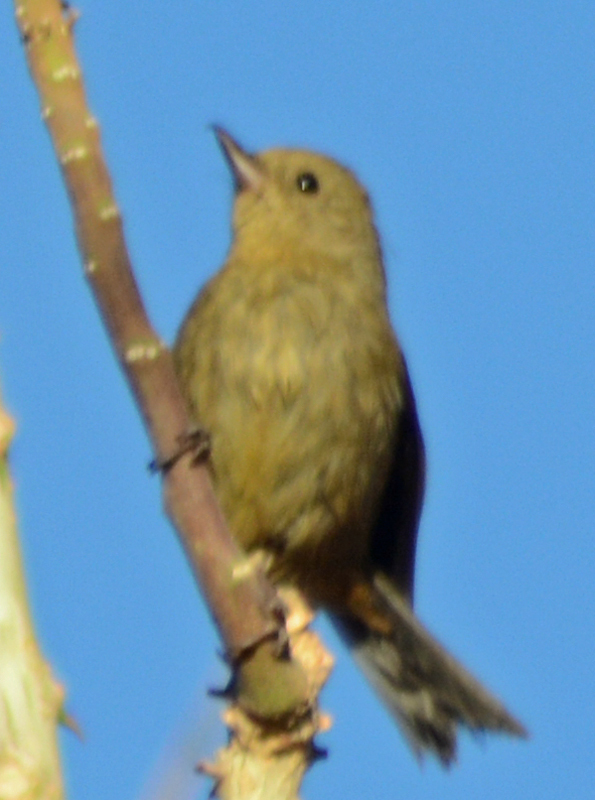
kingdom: Animalia
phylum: Chordata
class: Aves
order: Passeriformes
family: Thraupidae
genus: Diglossa
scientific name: Diglossa baritula
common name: Cinnamon-bellied flowerpiercer
